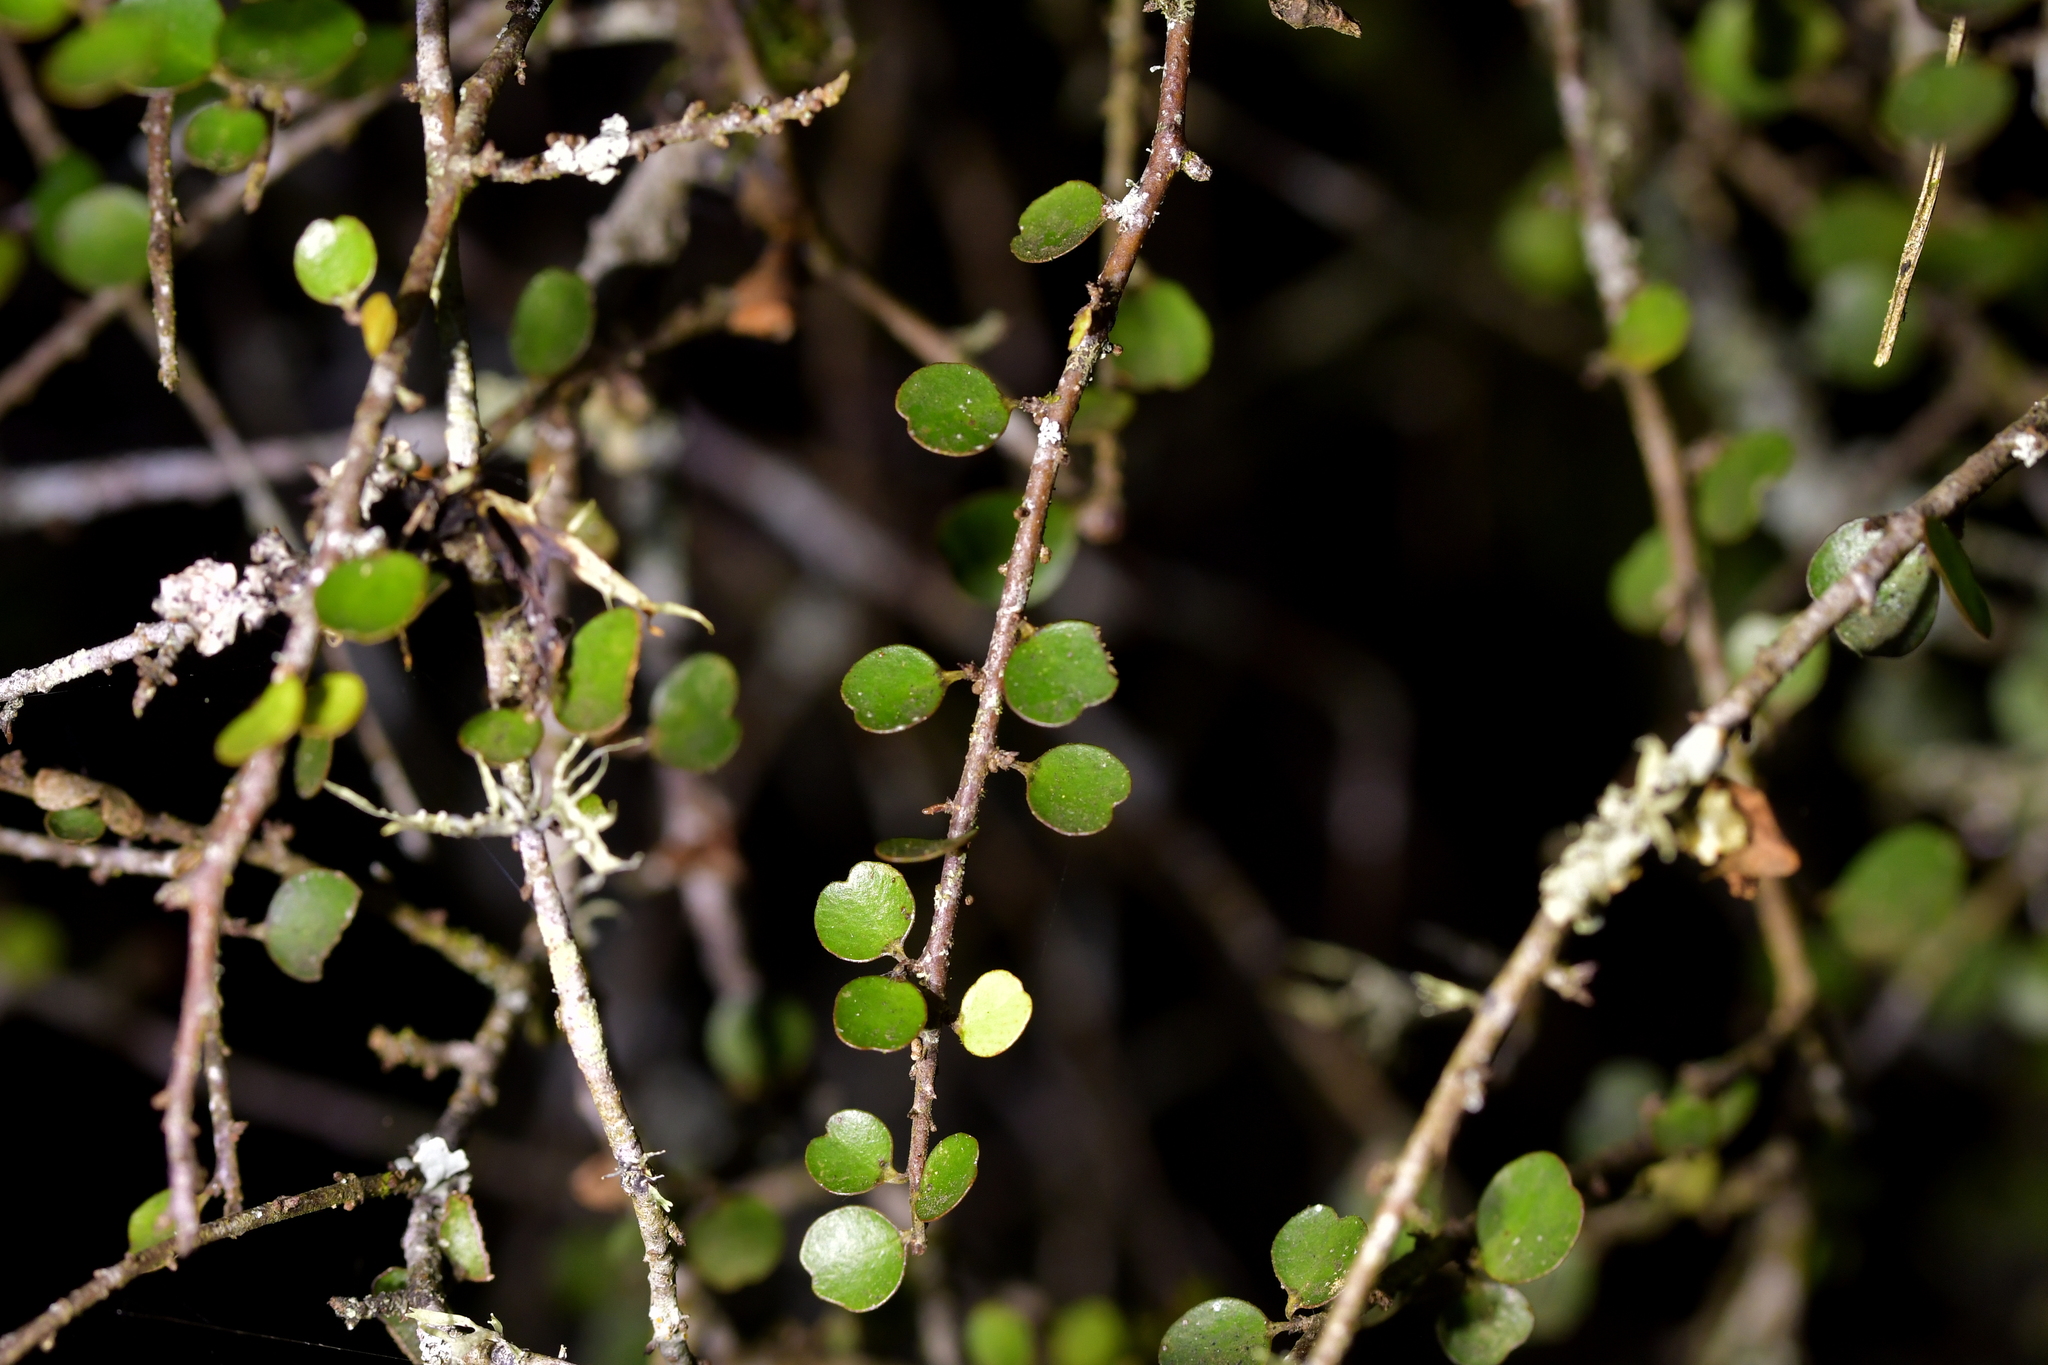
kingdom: Plantae
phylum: Tracheophyta
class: Magnoliopsida
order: Ericales
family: Primulaceae
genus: Myrsine
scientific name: Myrsine divaricata
